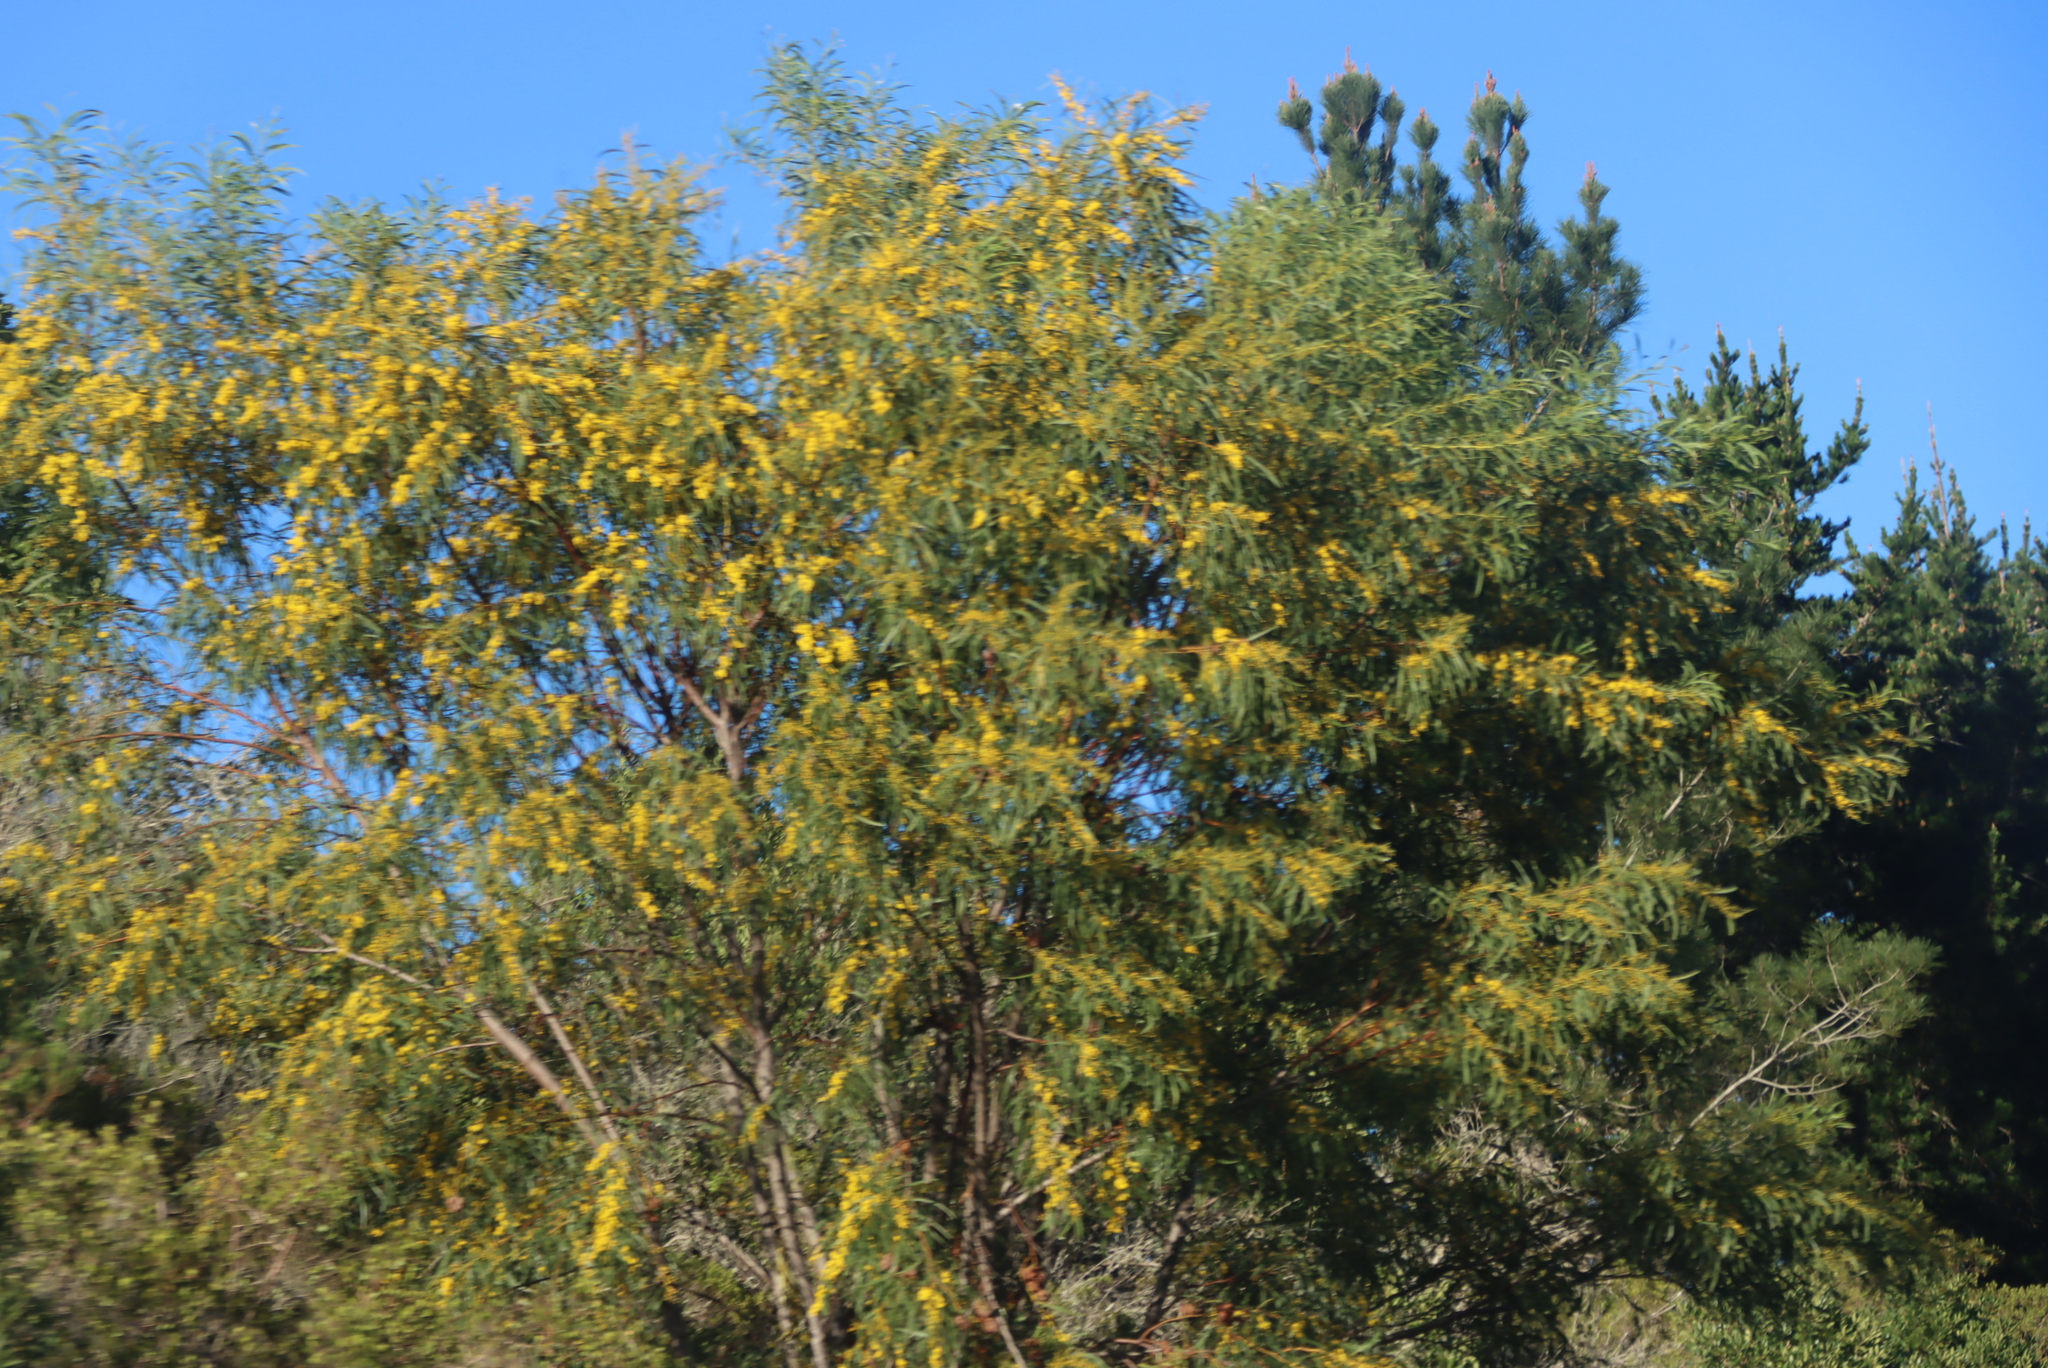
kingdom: Plantae
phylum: Tracheophyta
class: Magnoliopsida
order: Fabales
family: Fabaceae
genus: Acacia
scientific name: Acacia saligna
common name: Orange wattle
